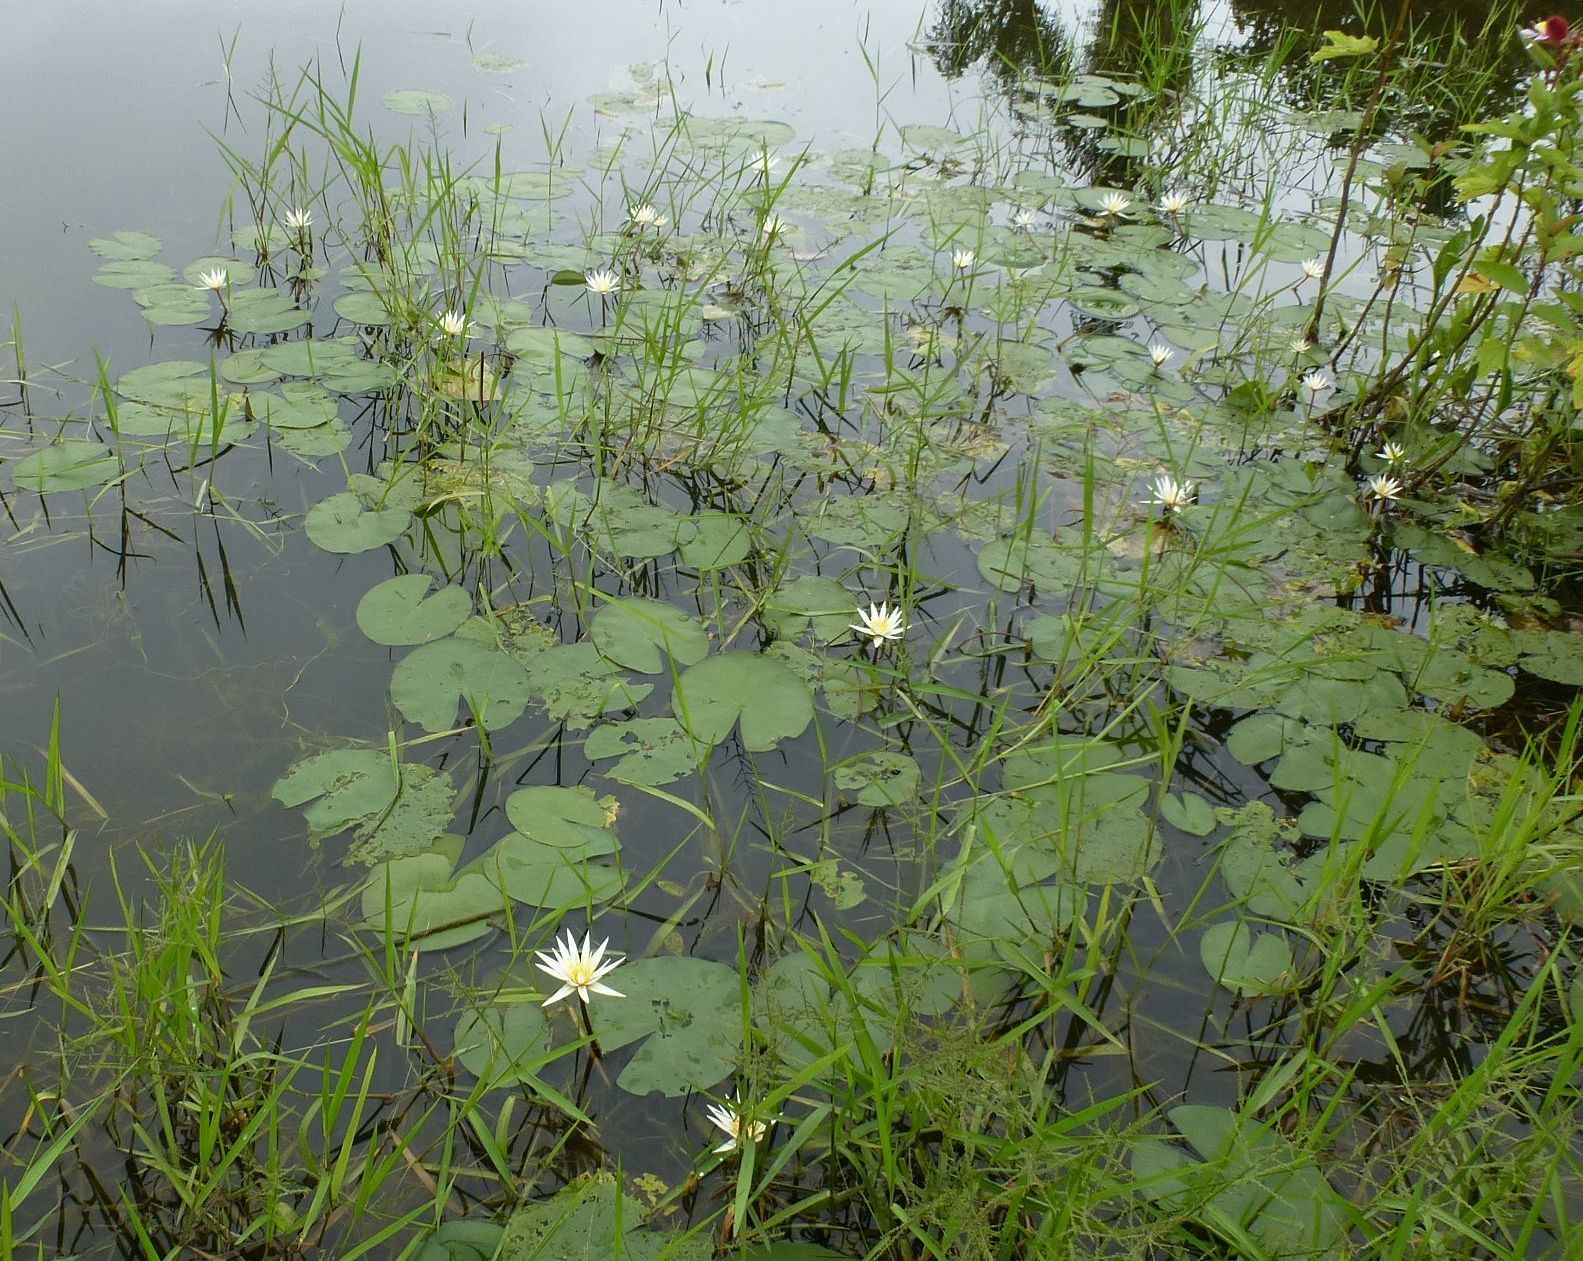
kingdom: Plantae
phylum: Tracheophyta
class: Magnoliopsida
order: Nymphaeales
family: Nymphaeaceae
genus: Nymphaea
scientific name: Nymphaea maculata
